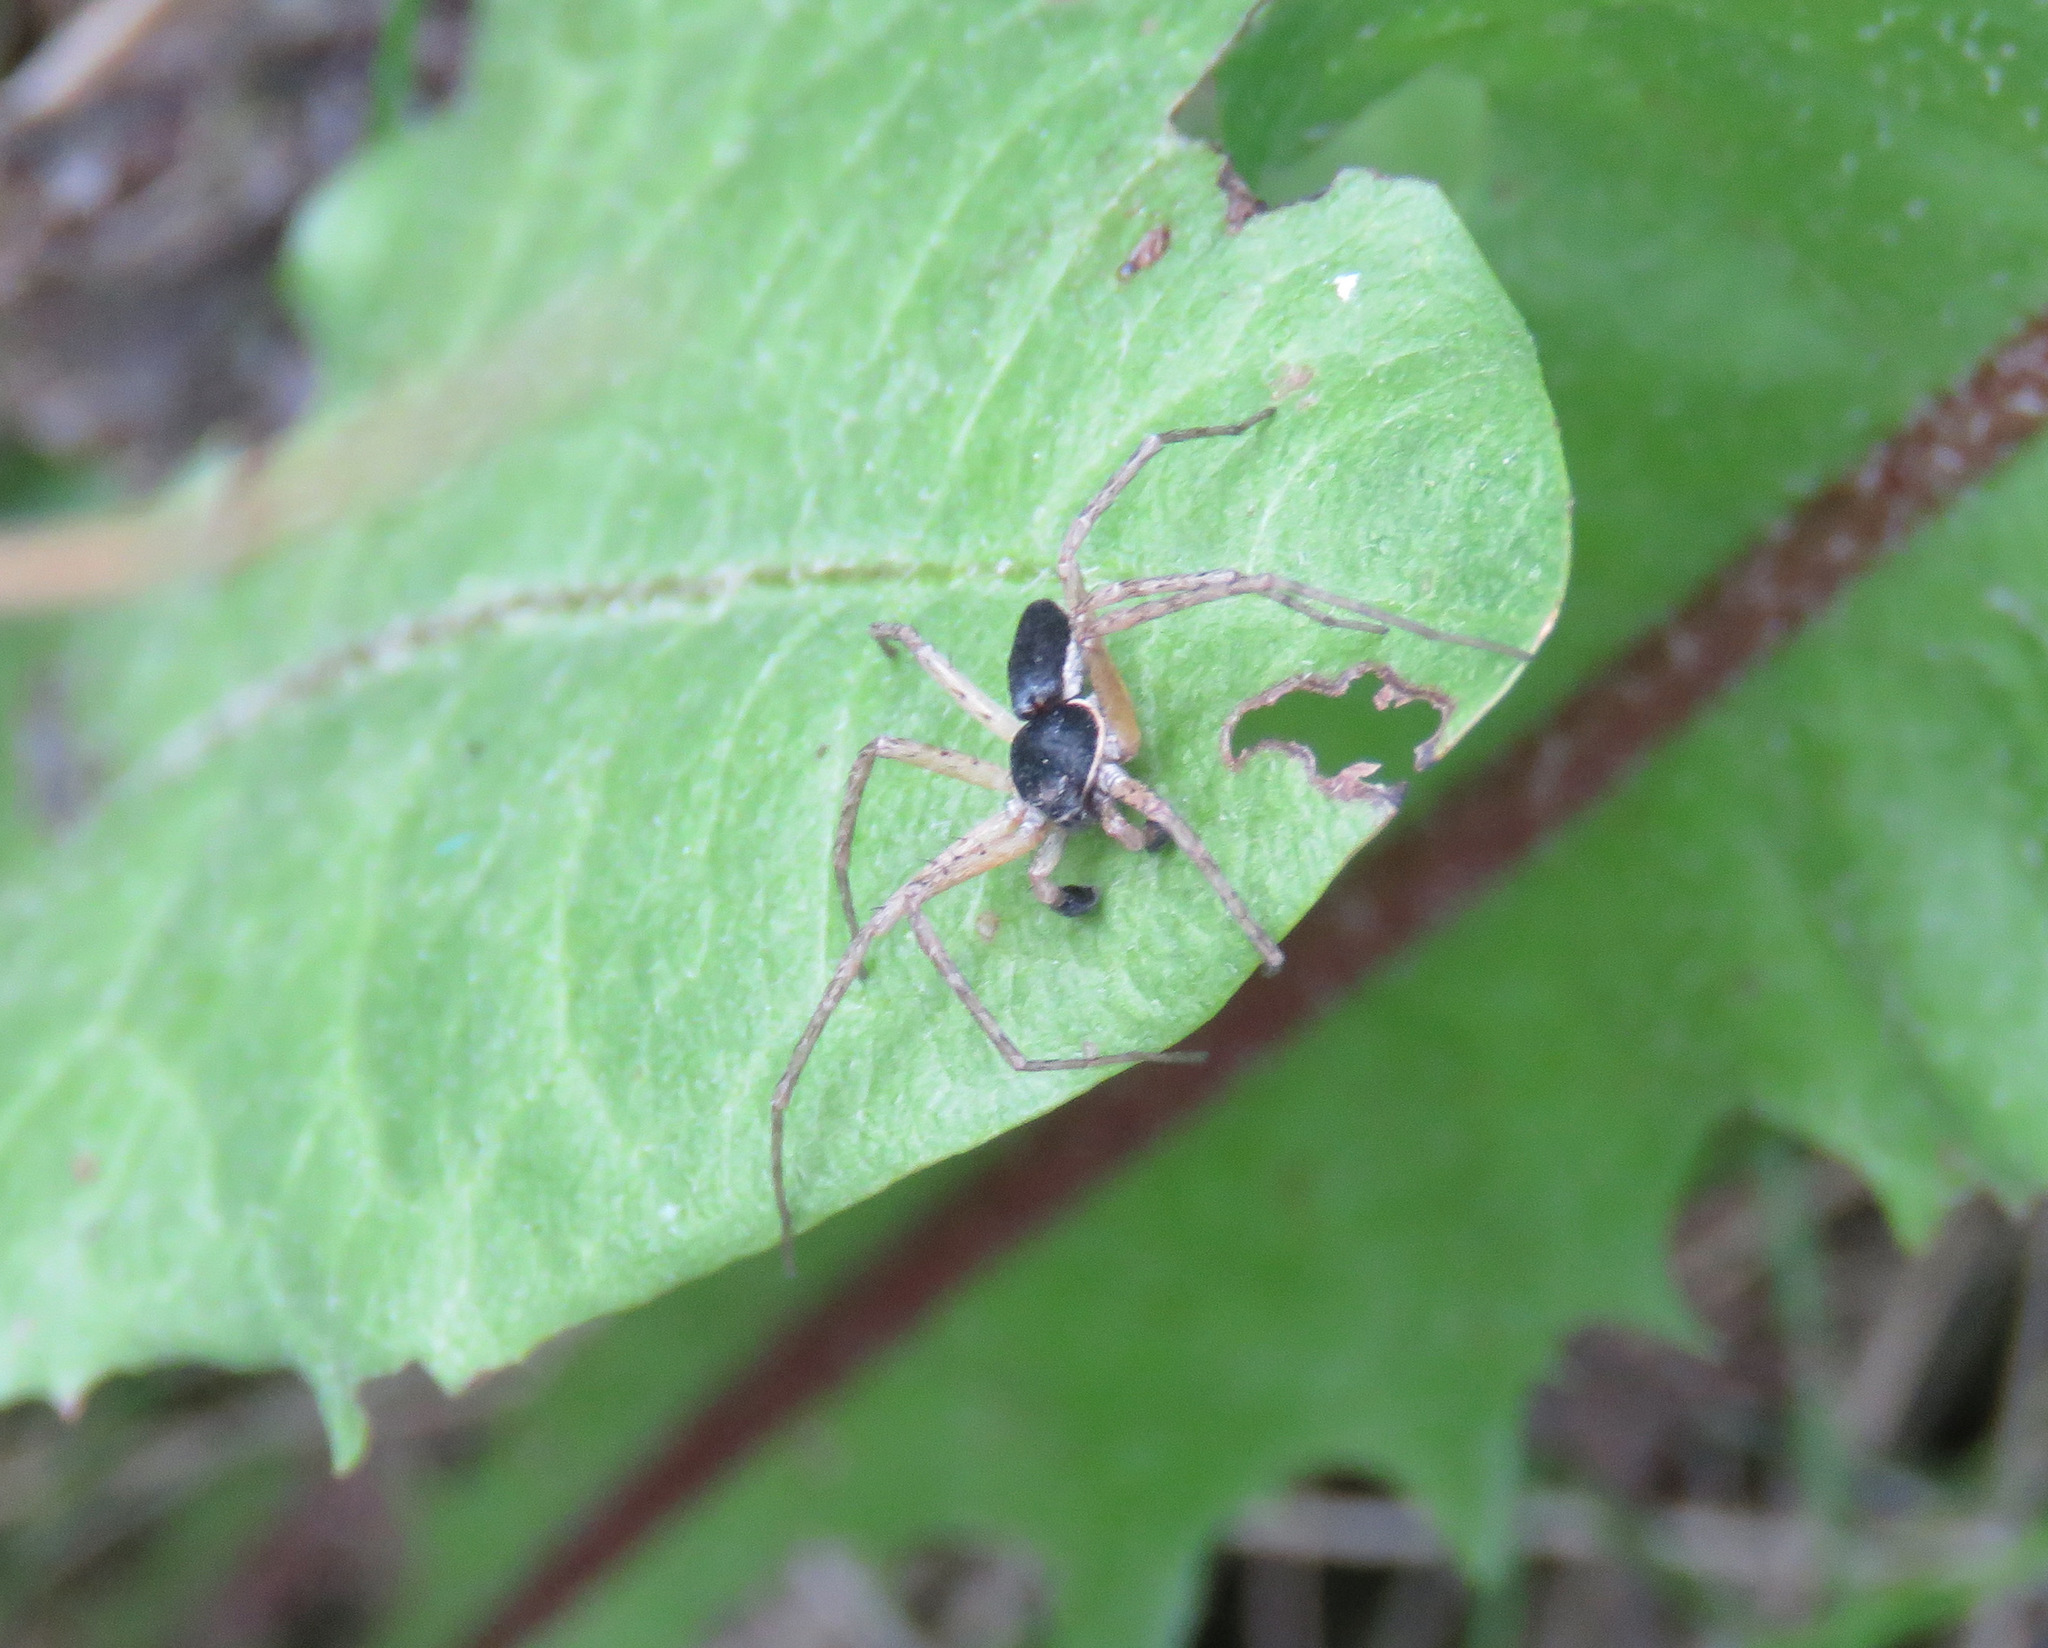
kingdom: Animalia
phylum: Arthropoda
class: Arachnida
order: Araneae
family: Philodromidae
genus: Philodromus
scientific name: Philodromus dispar
